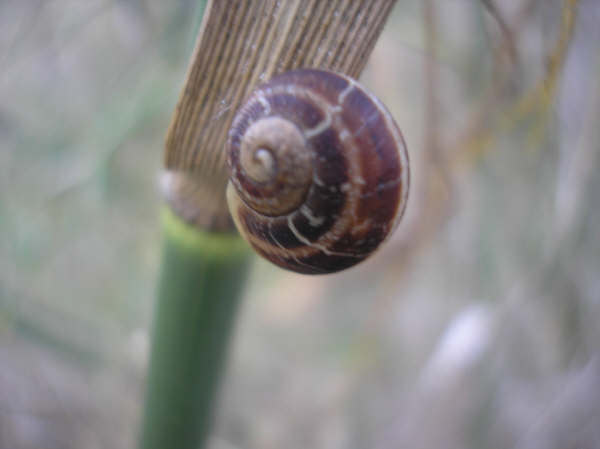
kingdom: Animalia
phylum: Mollusca
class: Gastropoda
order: Stylommatophora
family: Helicidae
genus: Cornu
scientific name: Cornu aspersum
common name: Brown garden snail
